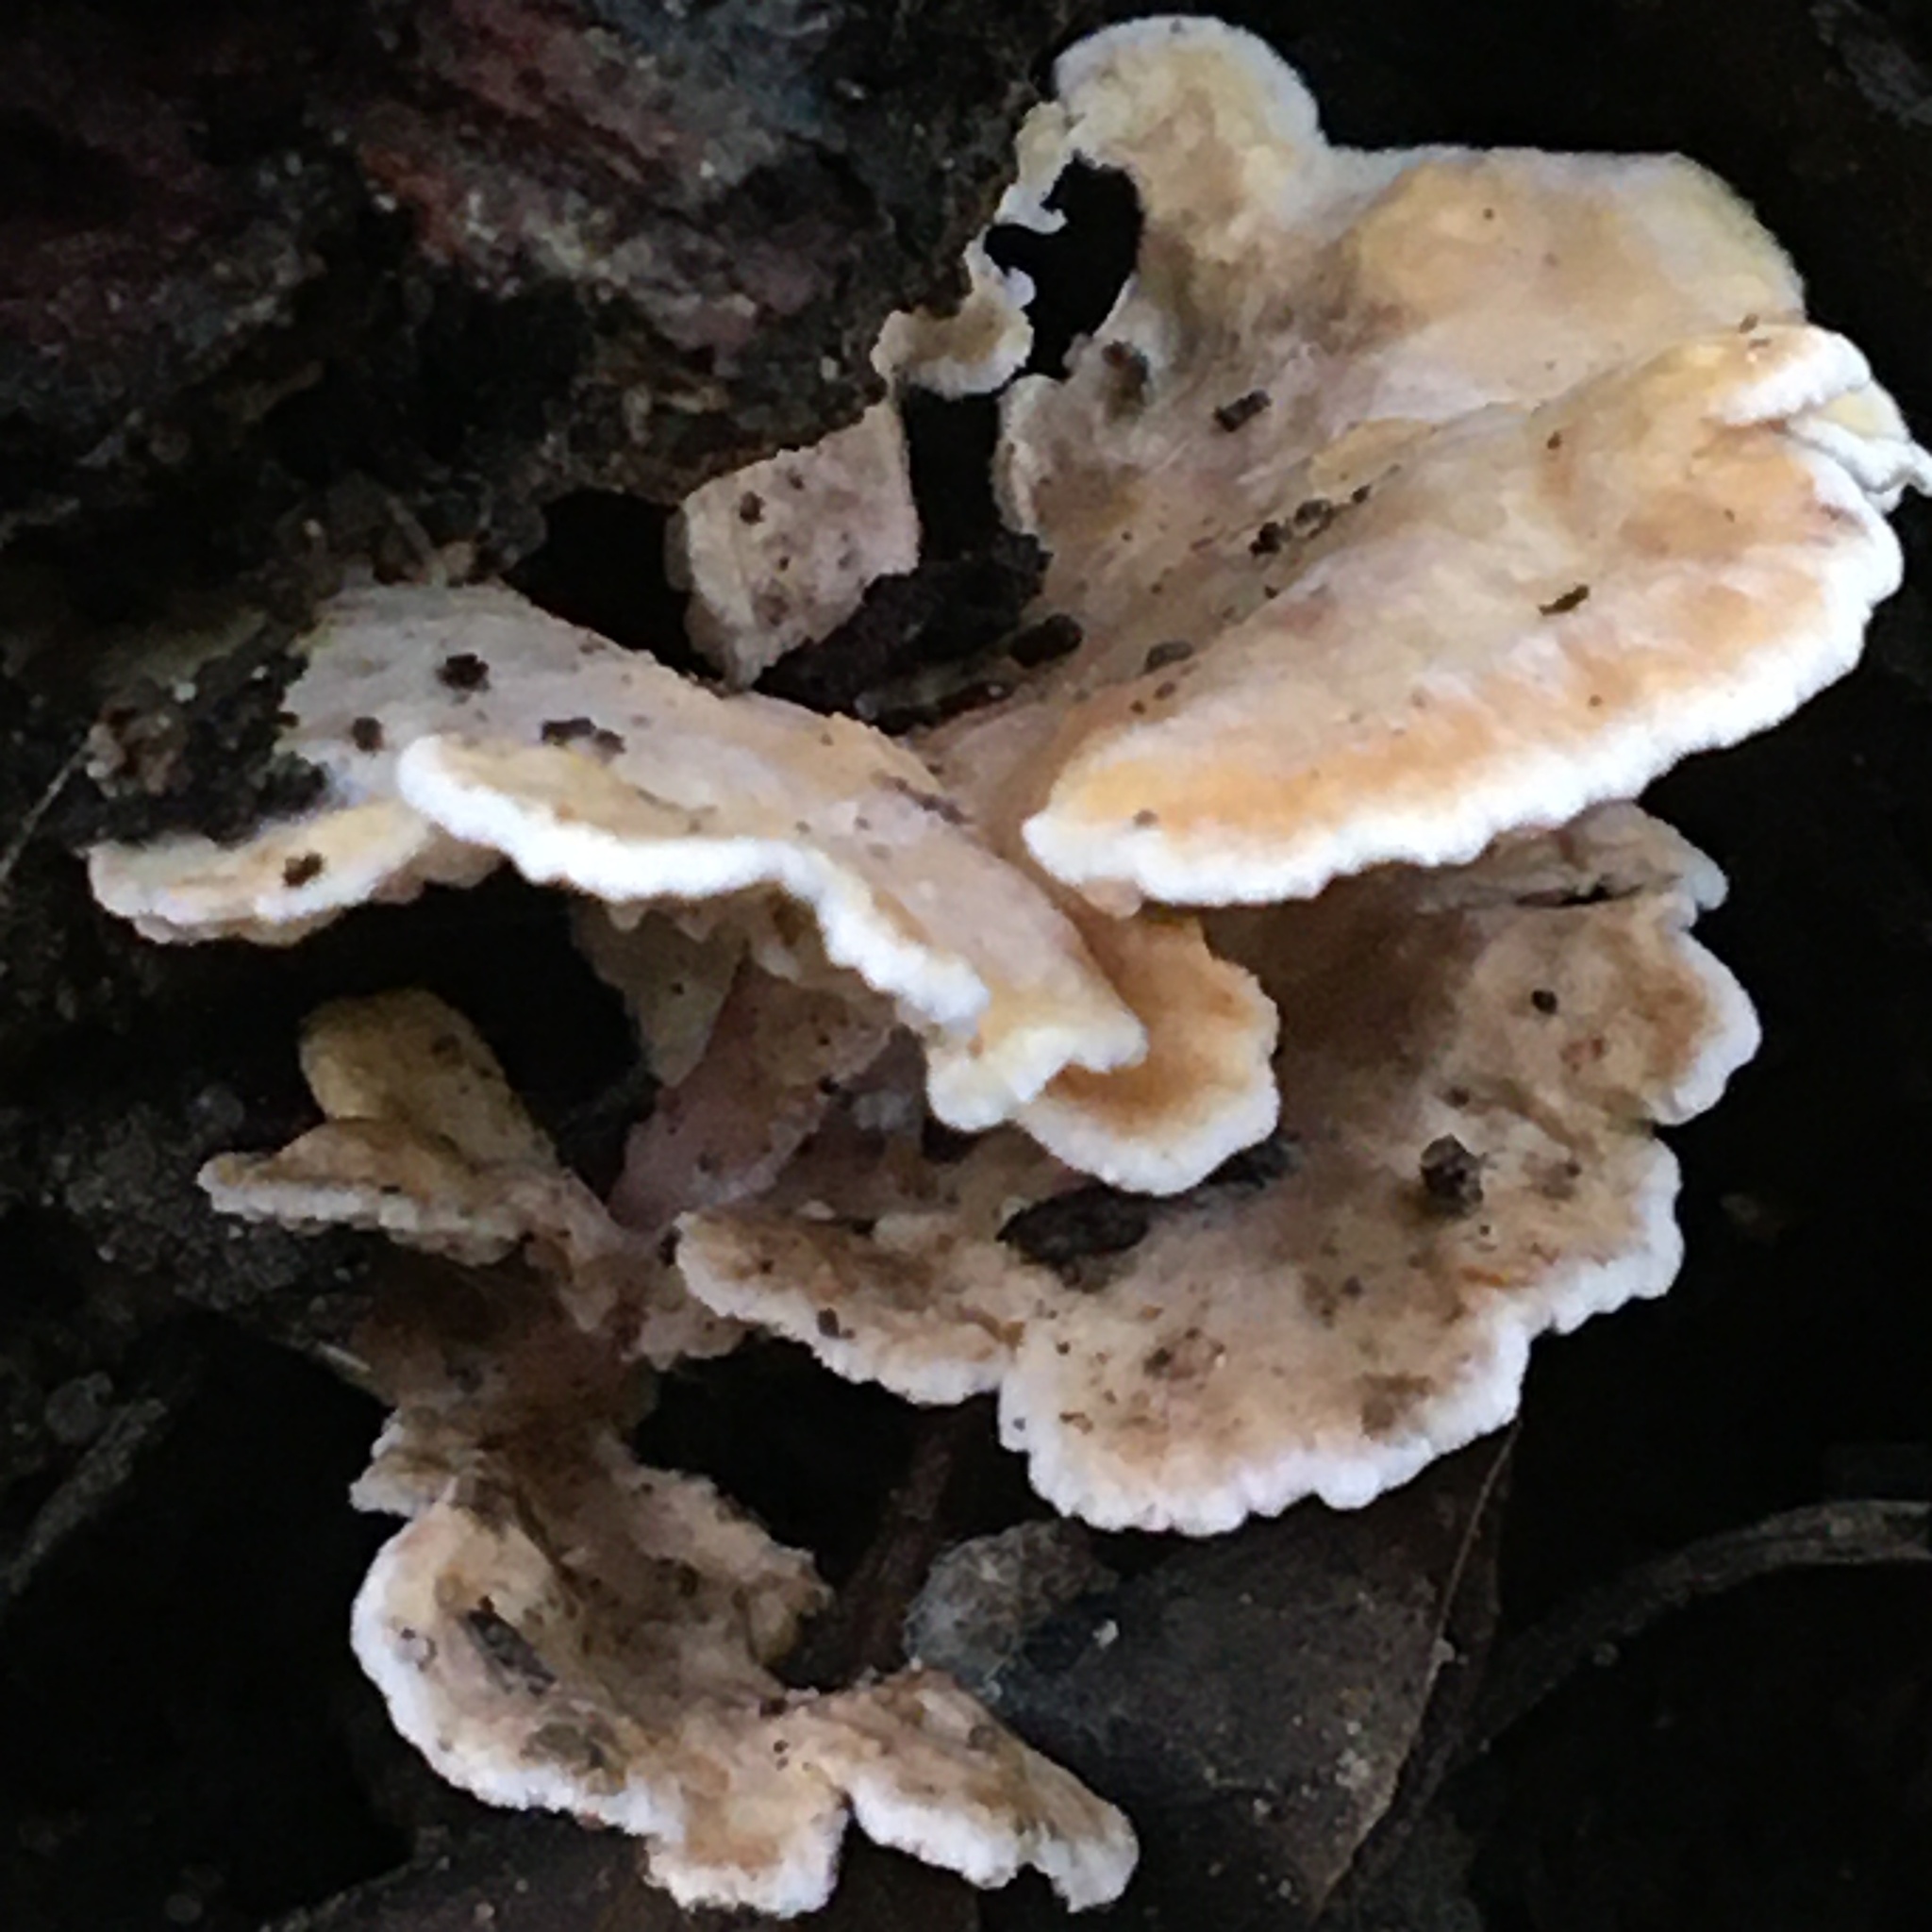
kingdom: Fungi
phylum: Basidiomycota
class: Agaricomycetes
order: Amylocorticiales
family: Amylocorticiaceae
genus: Podoserpula
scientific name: Podoserpula pusio
